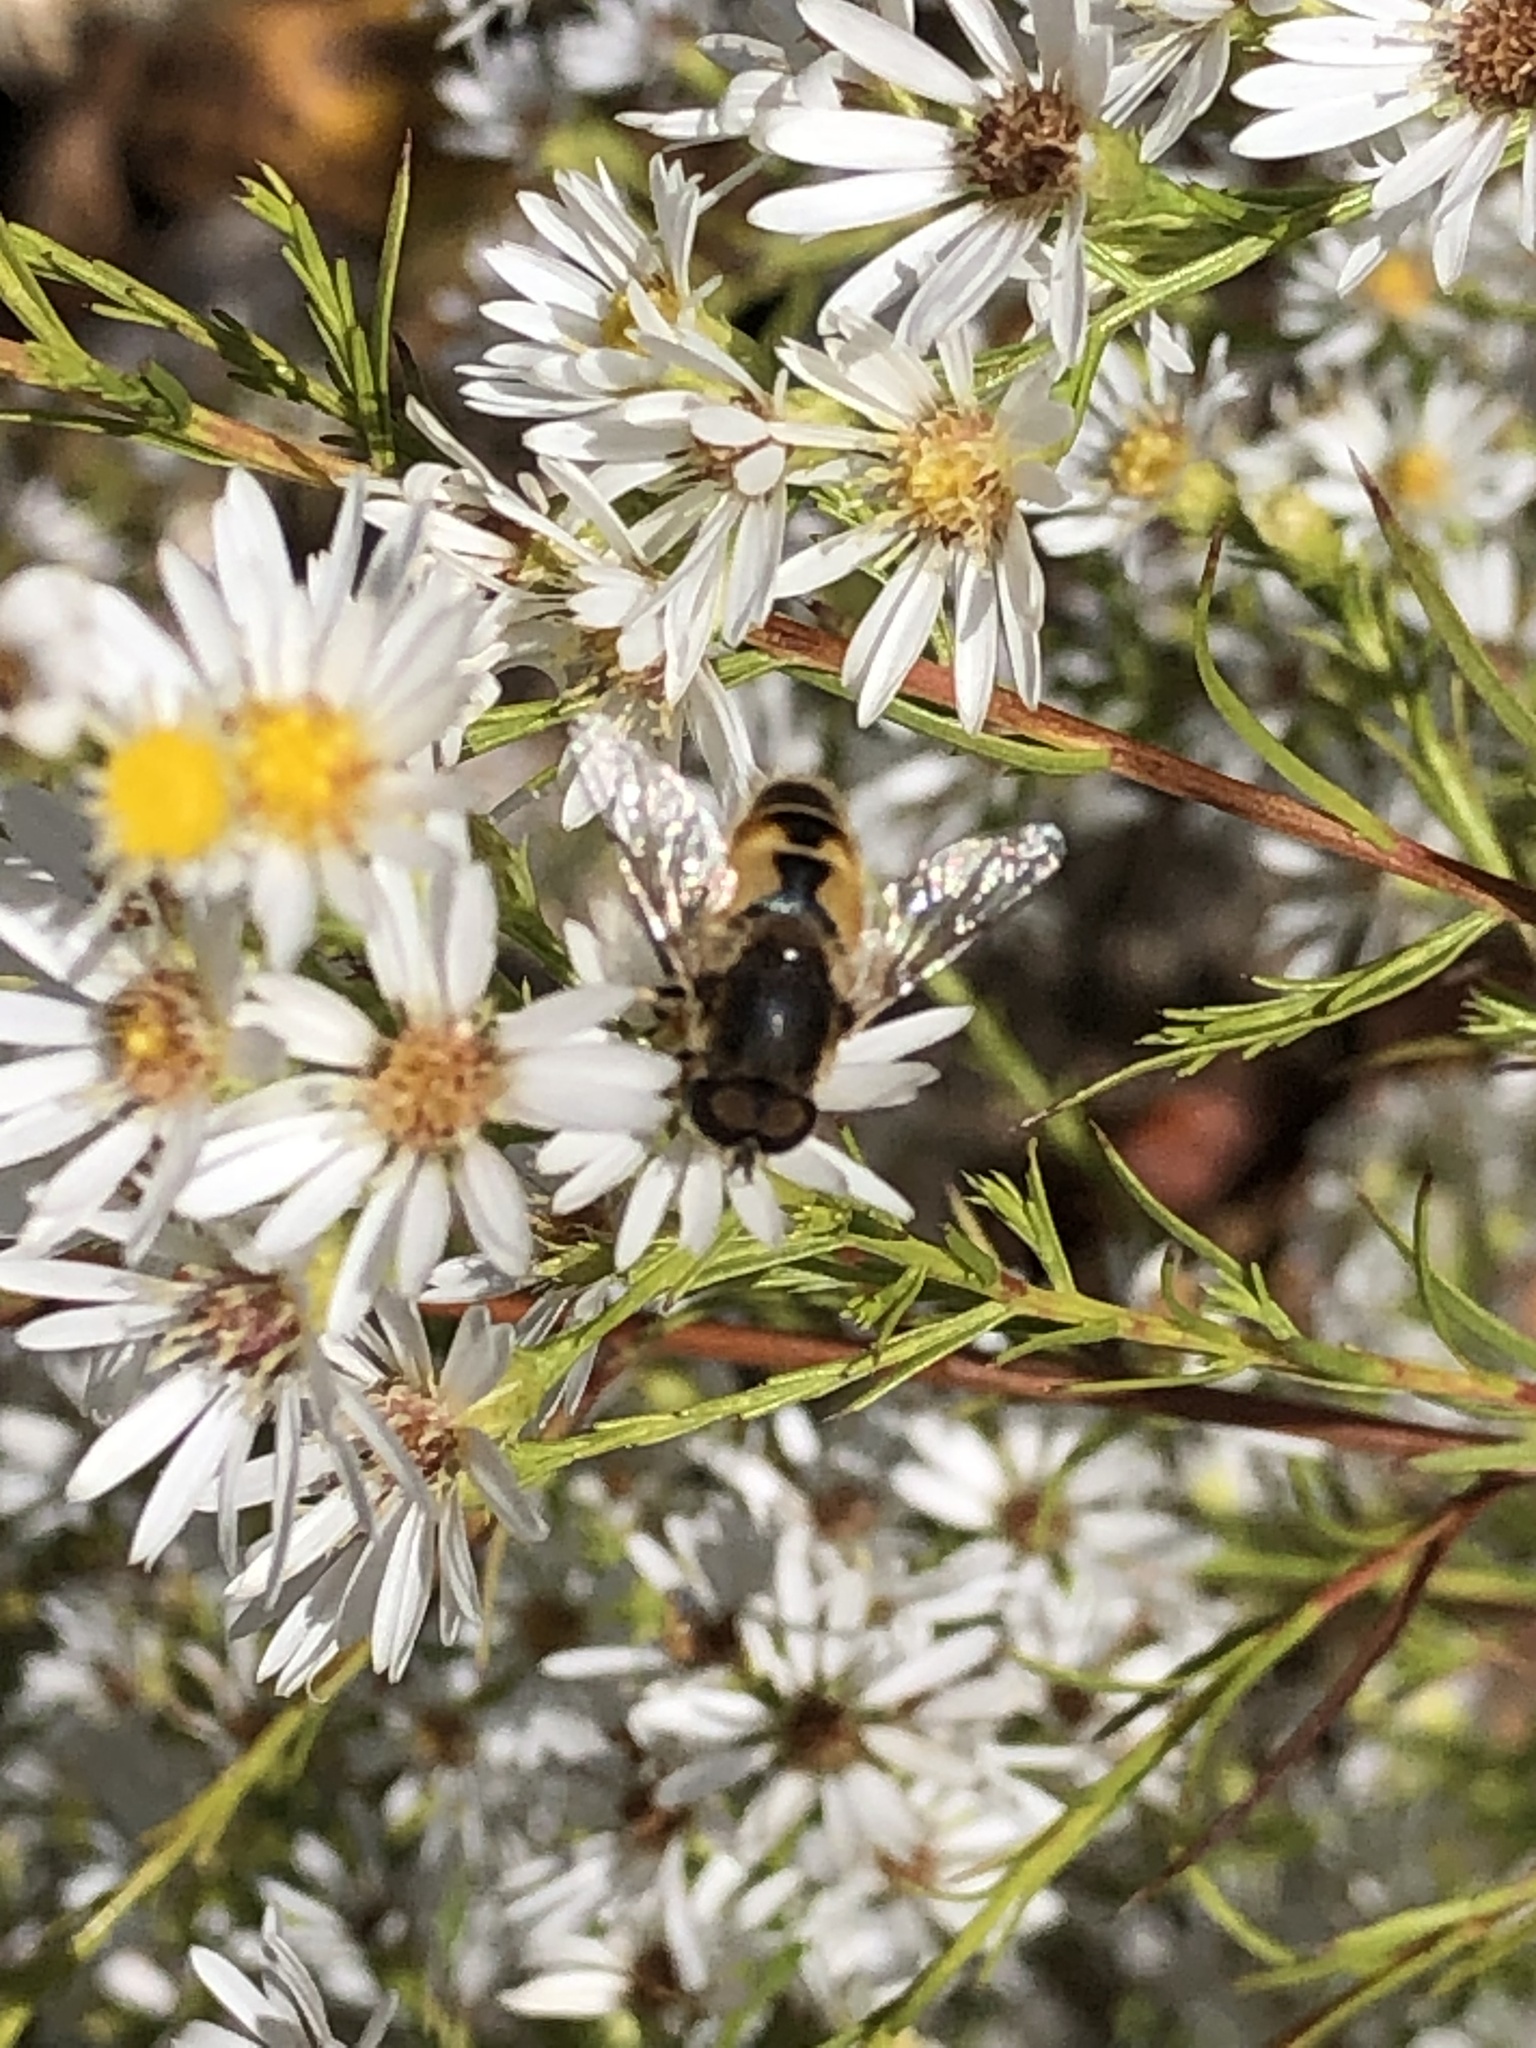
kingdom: Animalia
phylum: Arthropoda
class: Insecta
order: Diptera
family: Syrphidae
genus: Eristalis
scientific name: Eristalis arbustorum
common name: Hover fly
